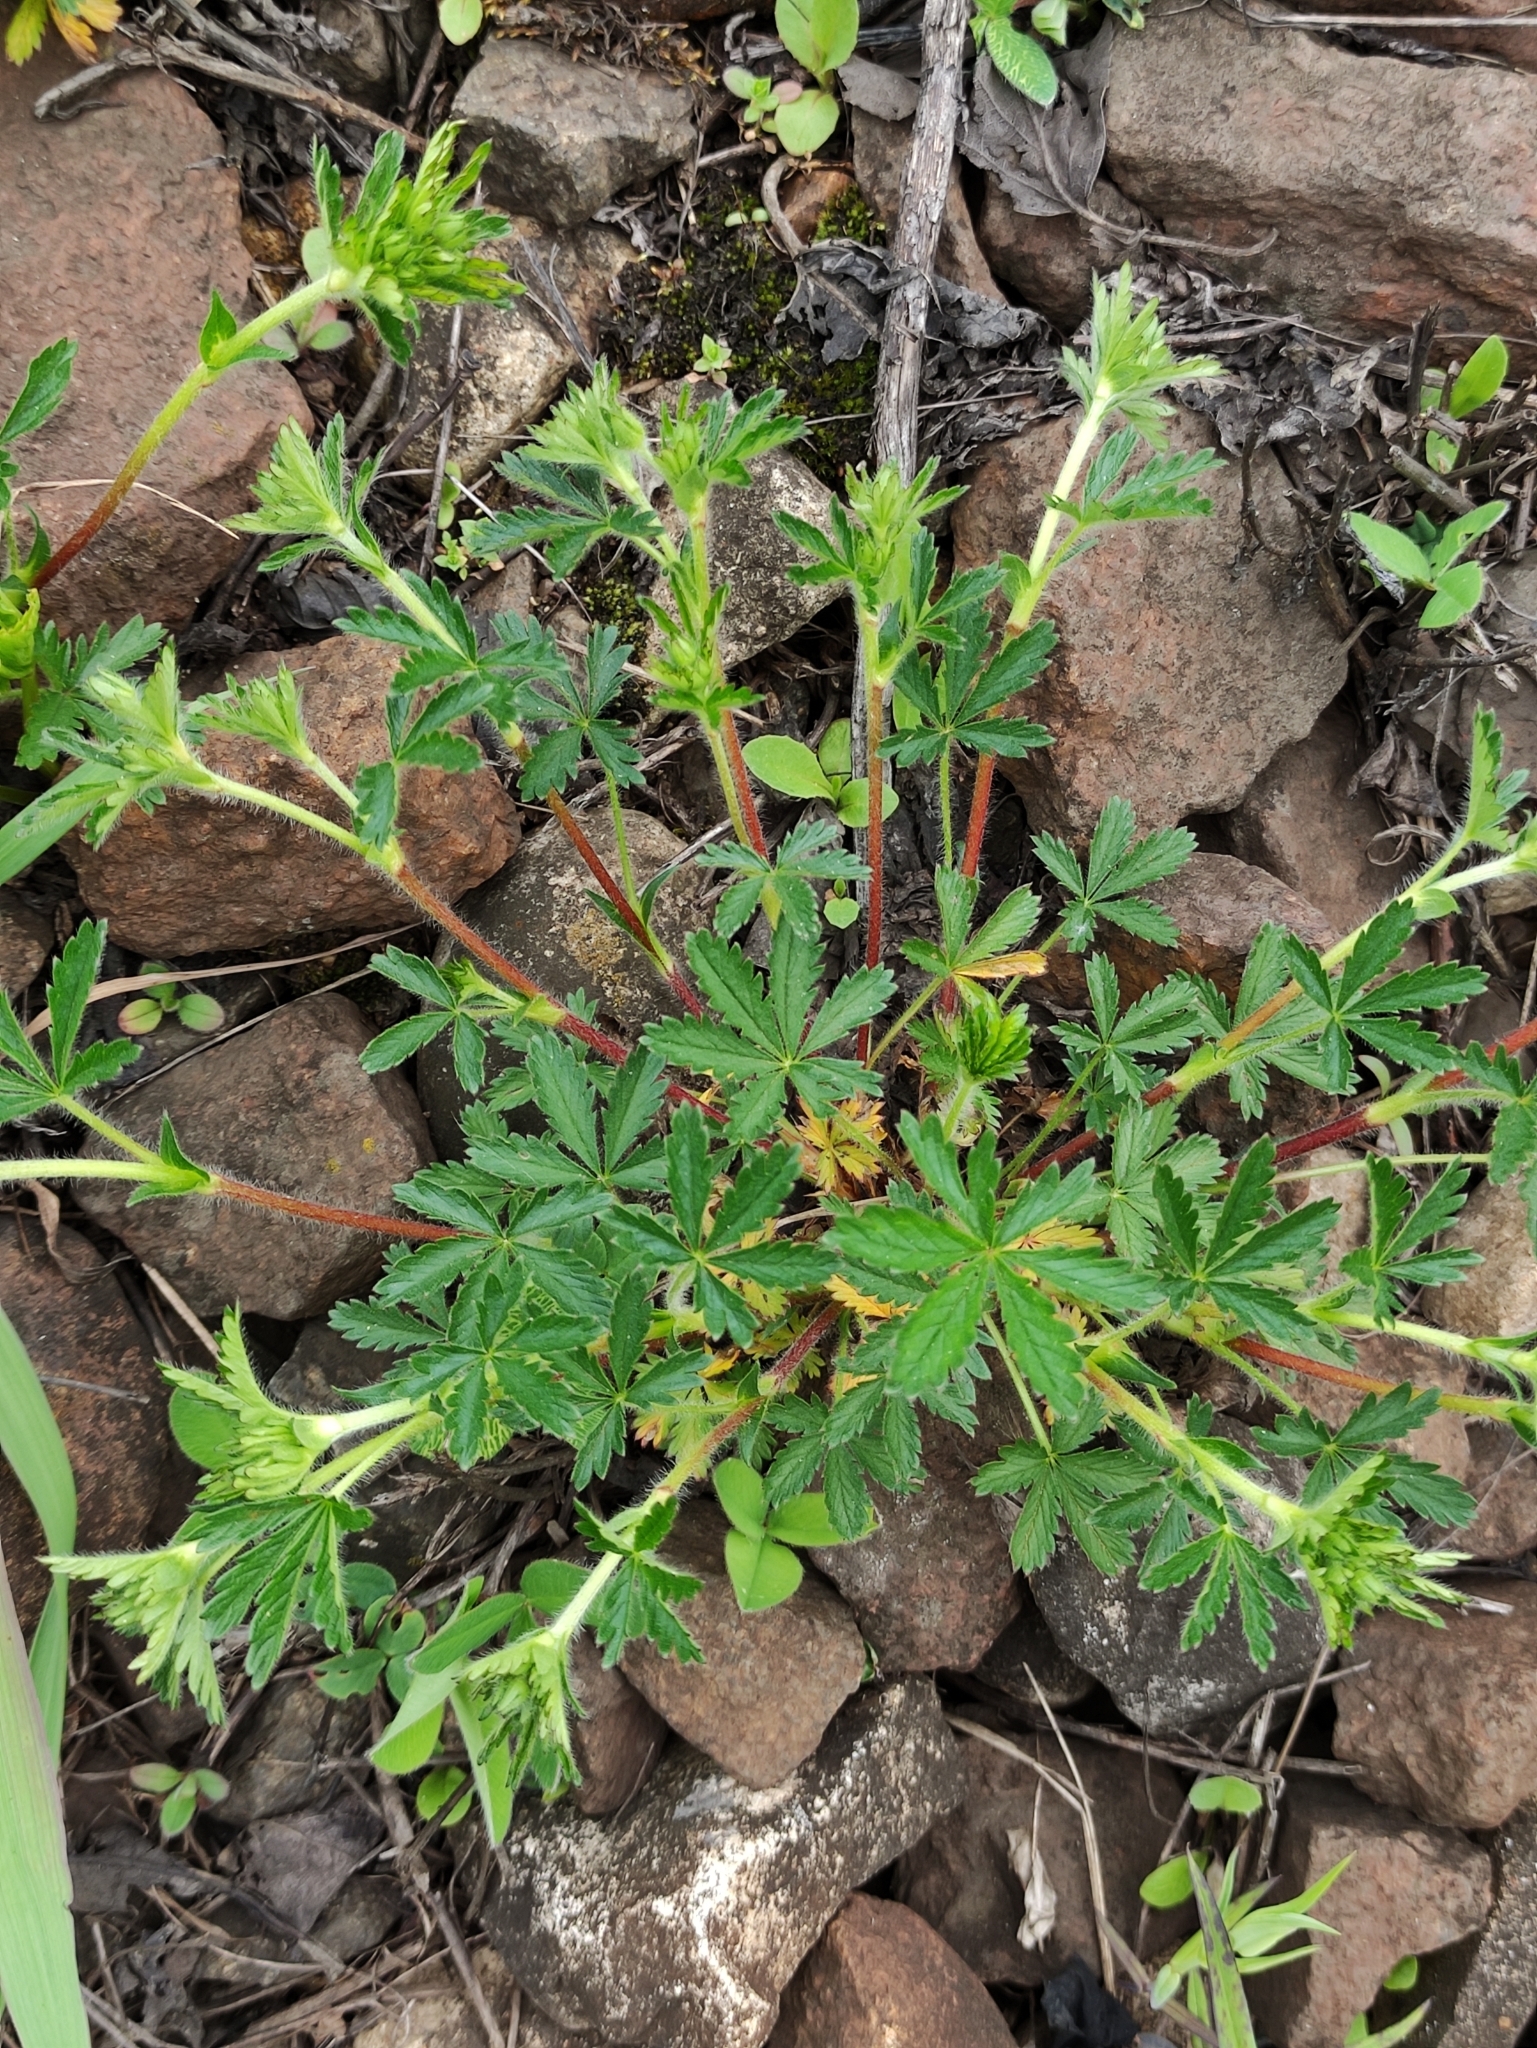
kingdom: Plantae
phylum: Tracheophyta
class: Magnoliopsida
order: Rosales
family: Rosaceae
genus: Potentilla
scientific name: Potentilla thuringiaca
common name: European cinquefoil
